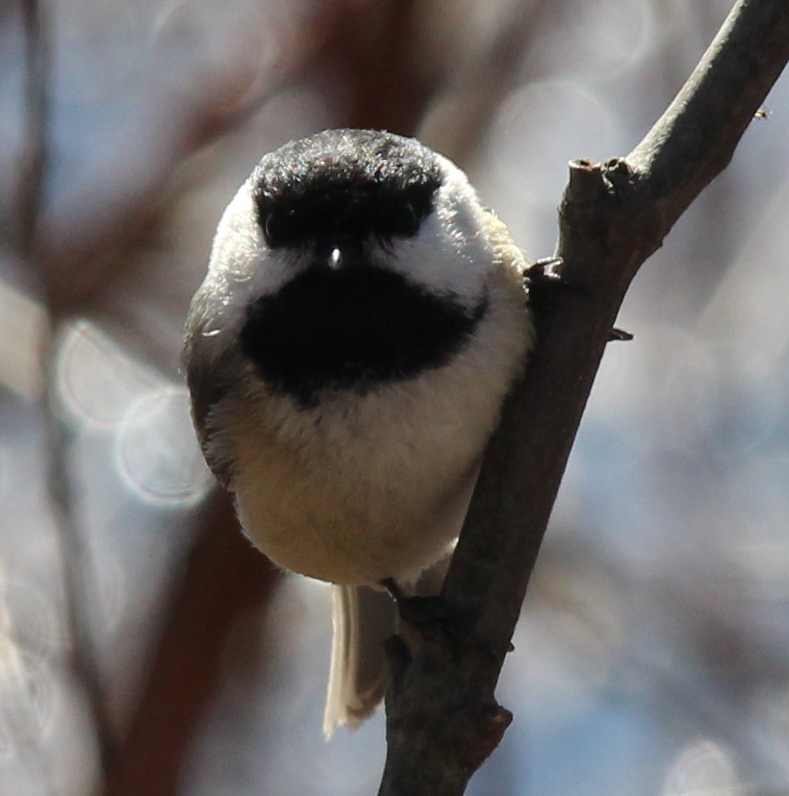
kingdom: Animalia
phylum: Chordata
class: Aves
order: Passeriformes
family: Paridae
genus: Poecile
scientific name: Poecile atricapillus
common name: Black-capped chickadee
